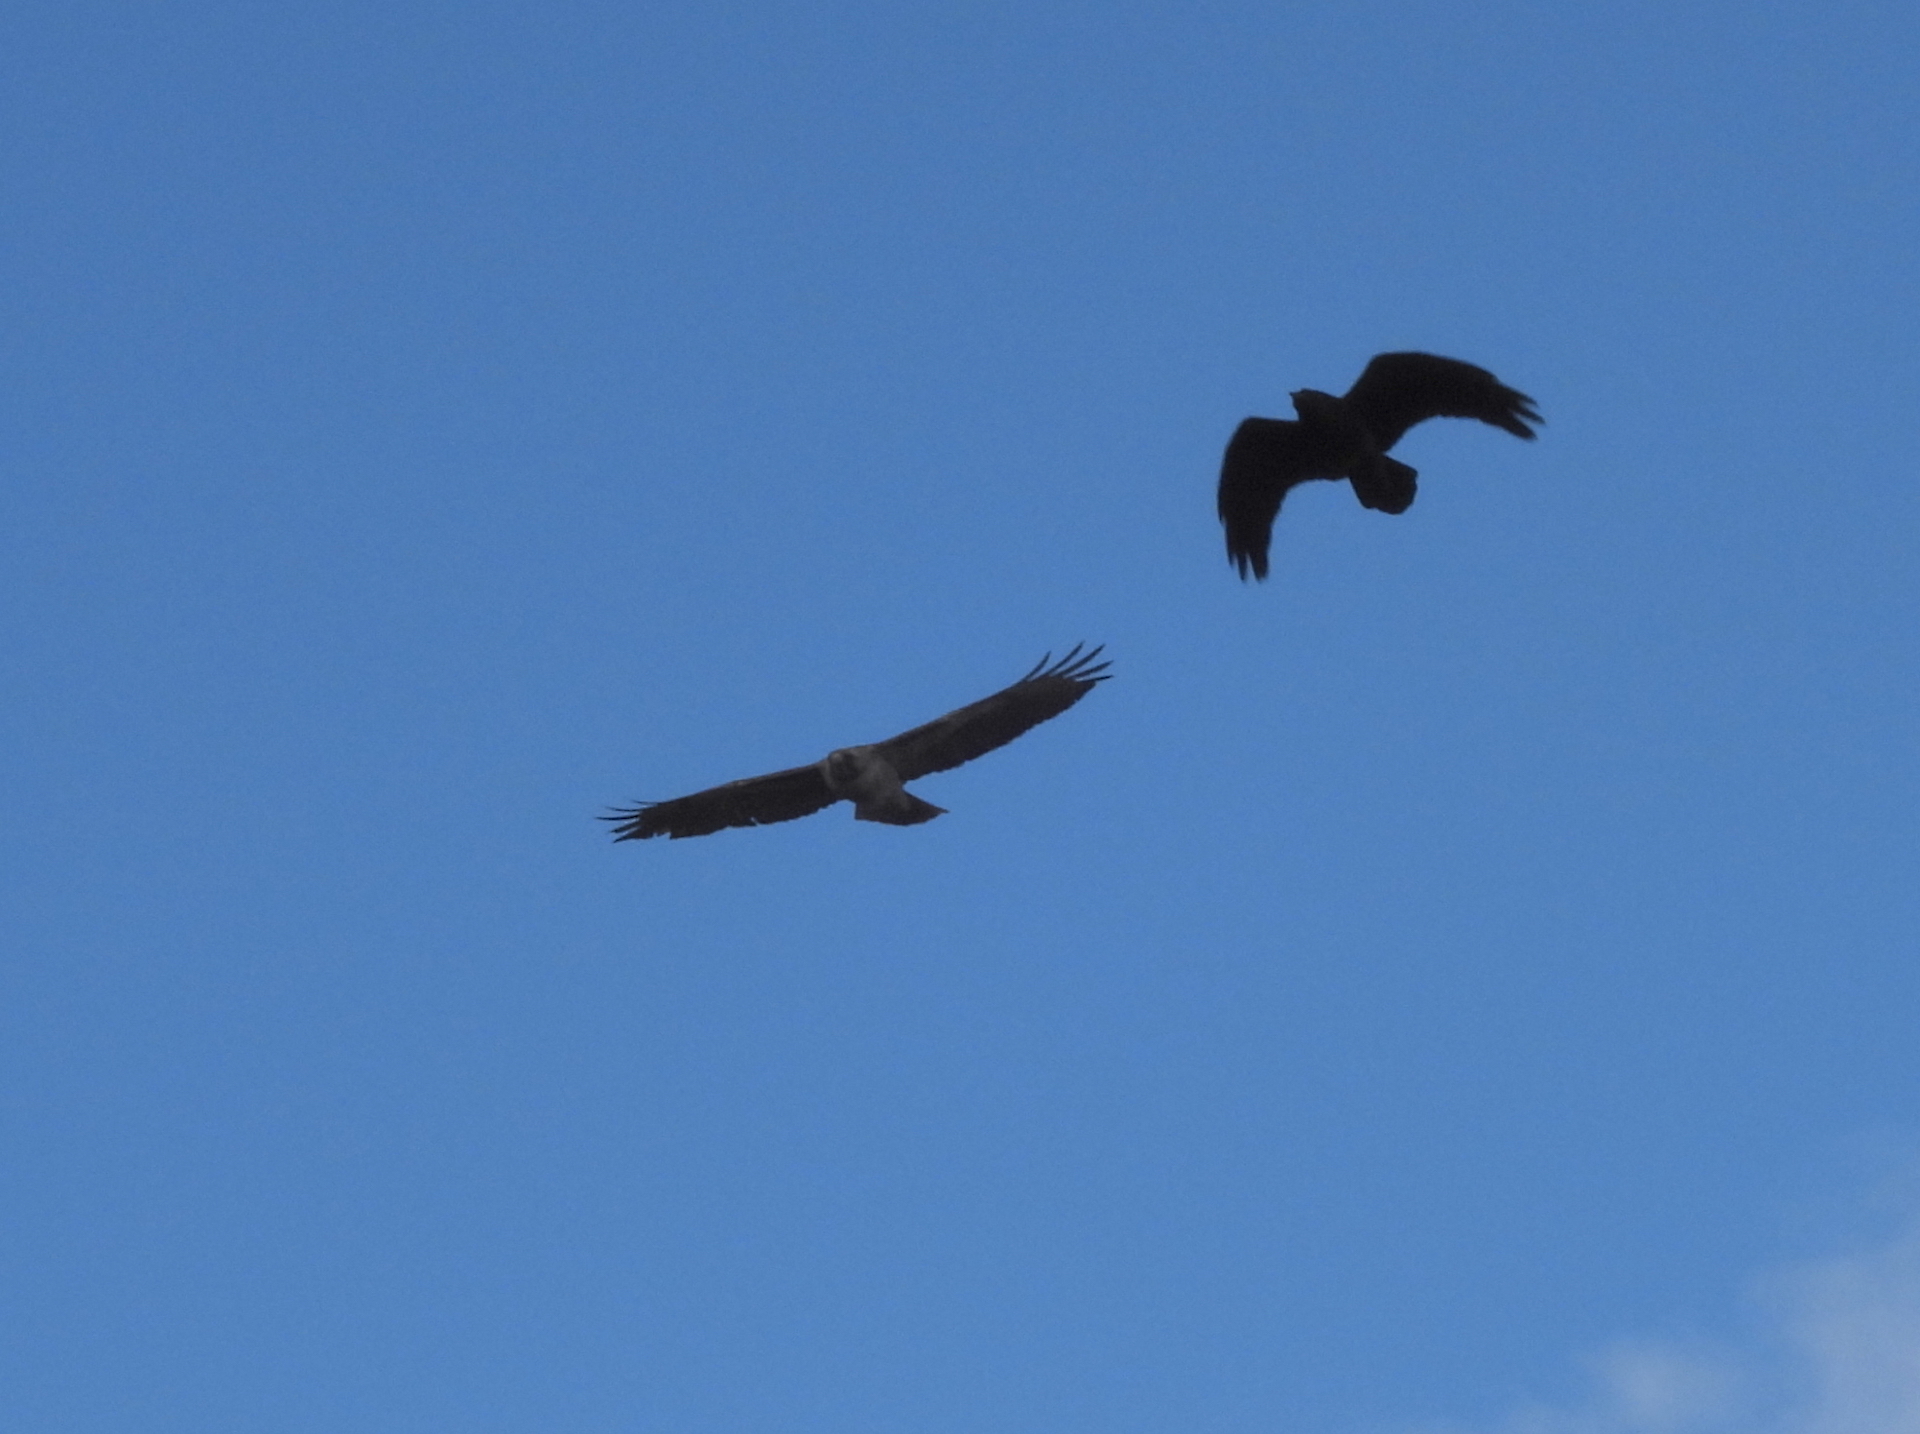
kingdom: Animalia
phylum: Chordata
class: Aves
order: Accipitriformes
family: Accipitridae
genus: Buteo
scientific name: Buteo jamaicensis
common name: Red-tailed hawk
